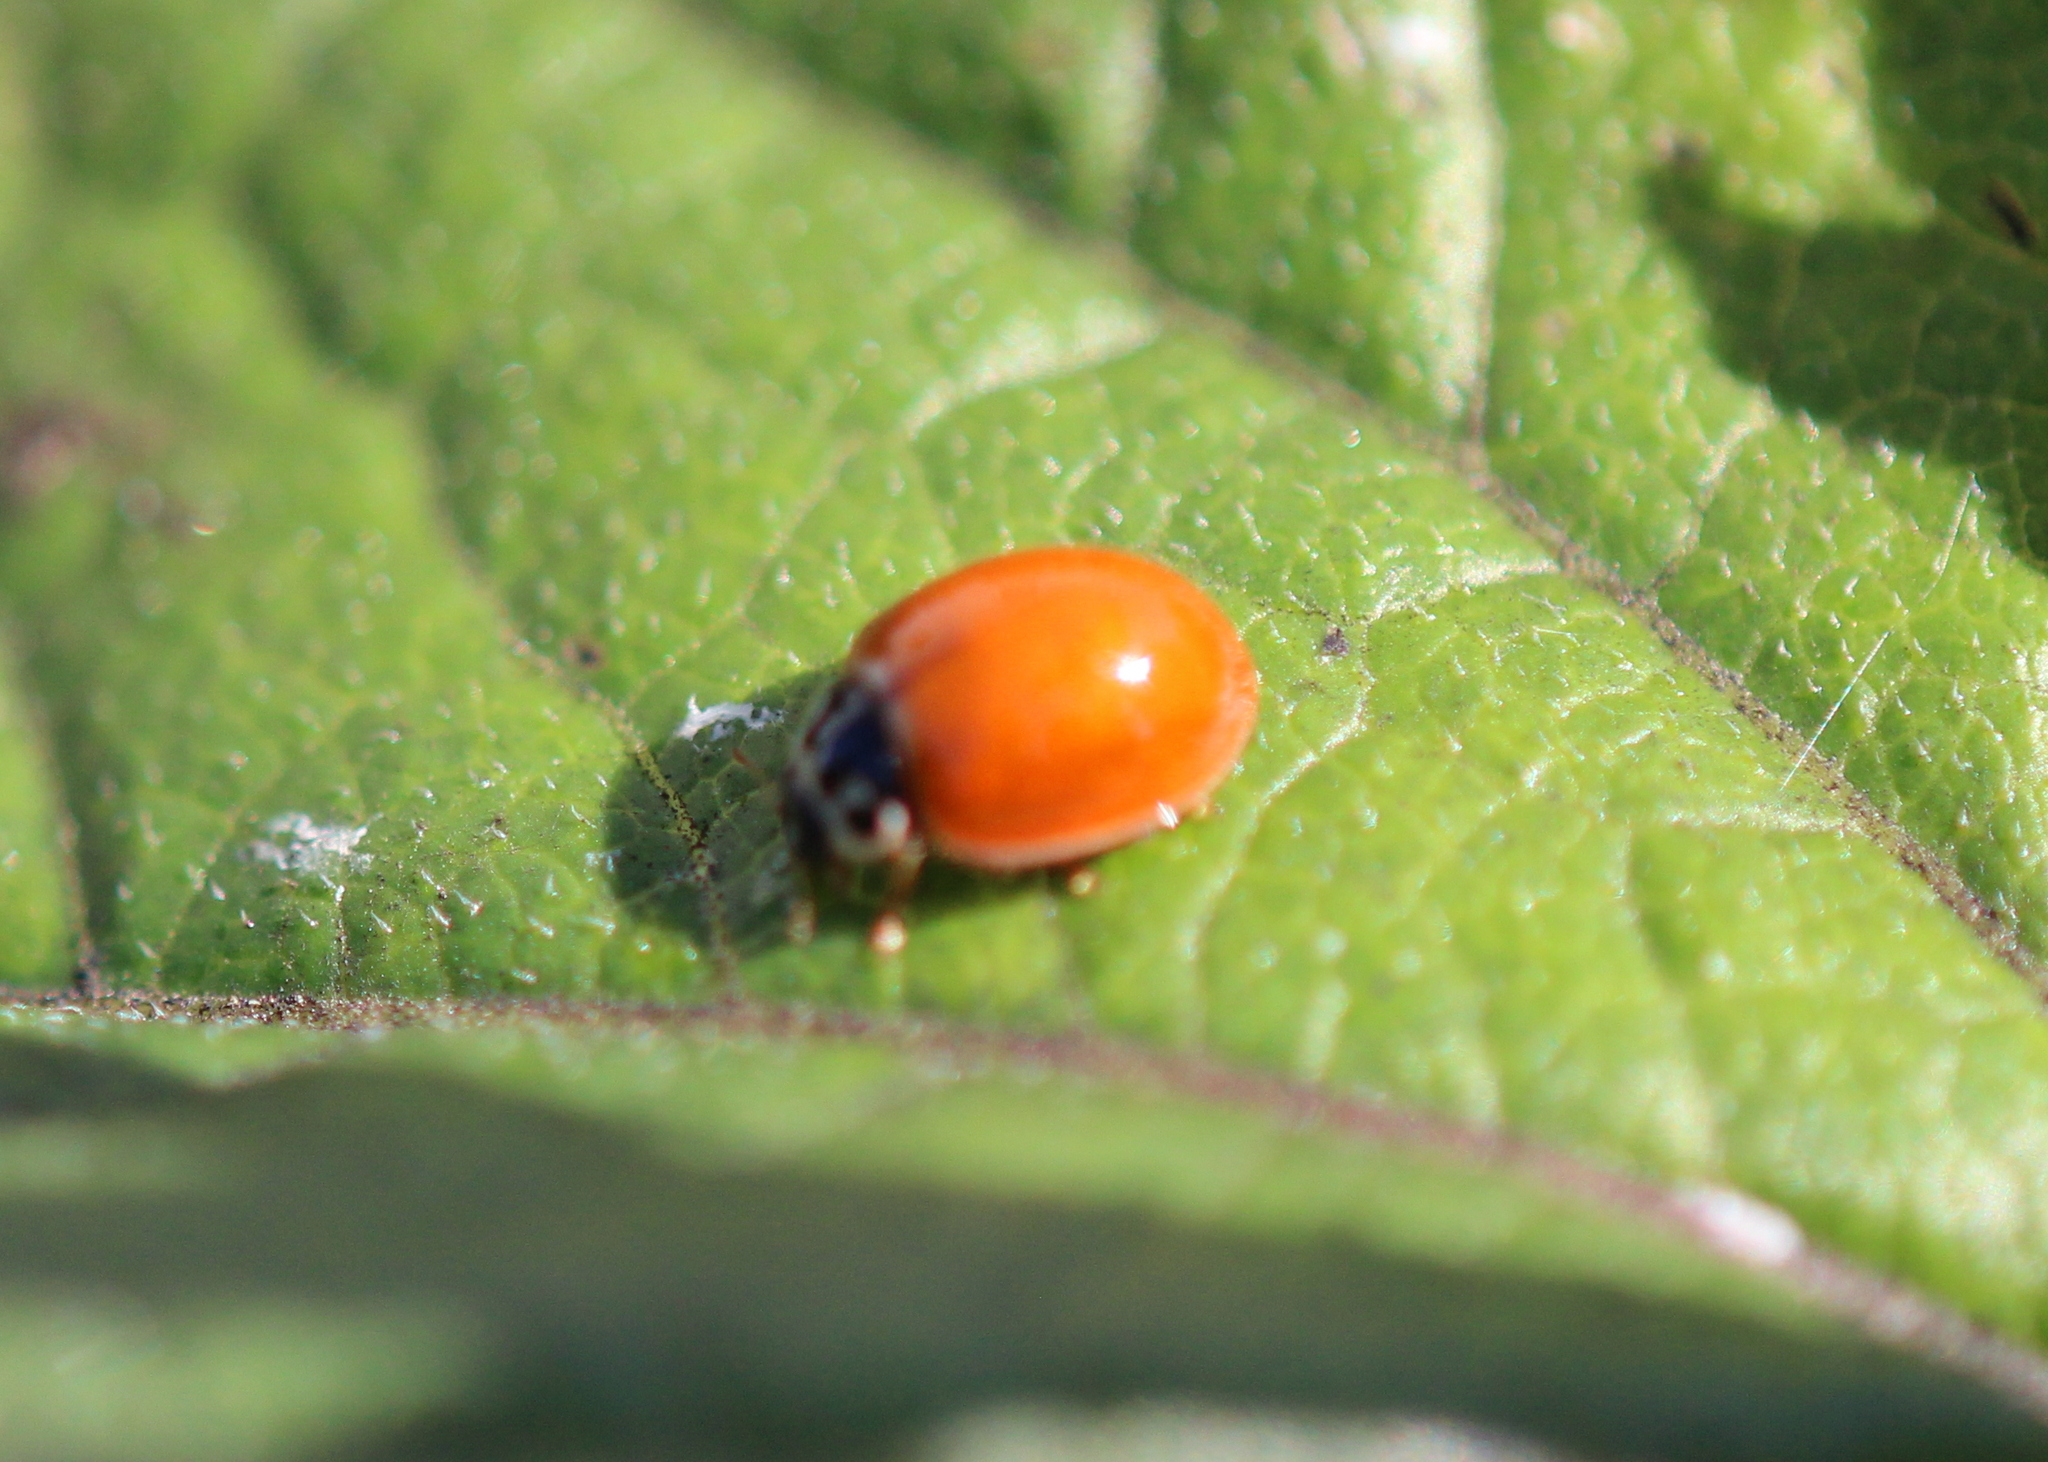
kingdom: Animalia
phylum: Arthropoda
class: Insecta
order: Coleoptera
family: Coccinellidae
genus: Cycloneda
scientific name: Cycloneda munda
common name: Polished lady beetle
